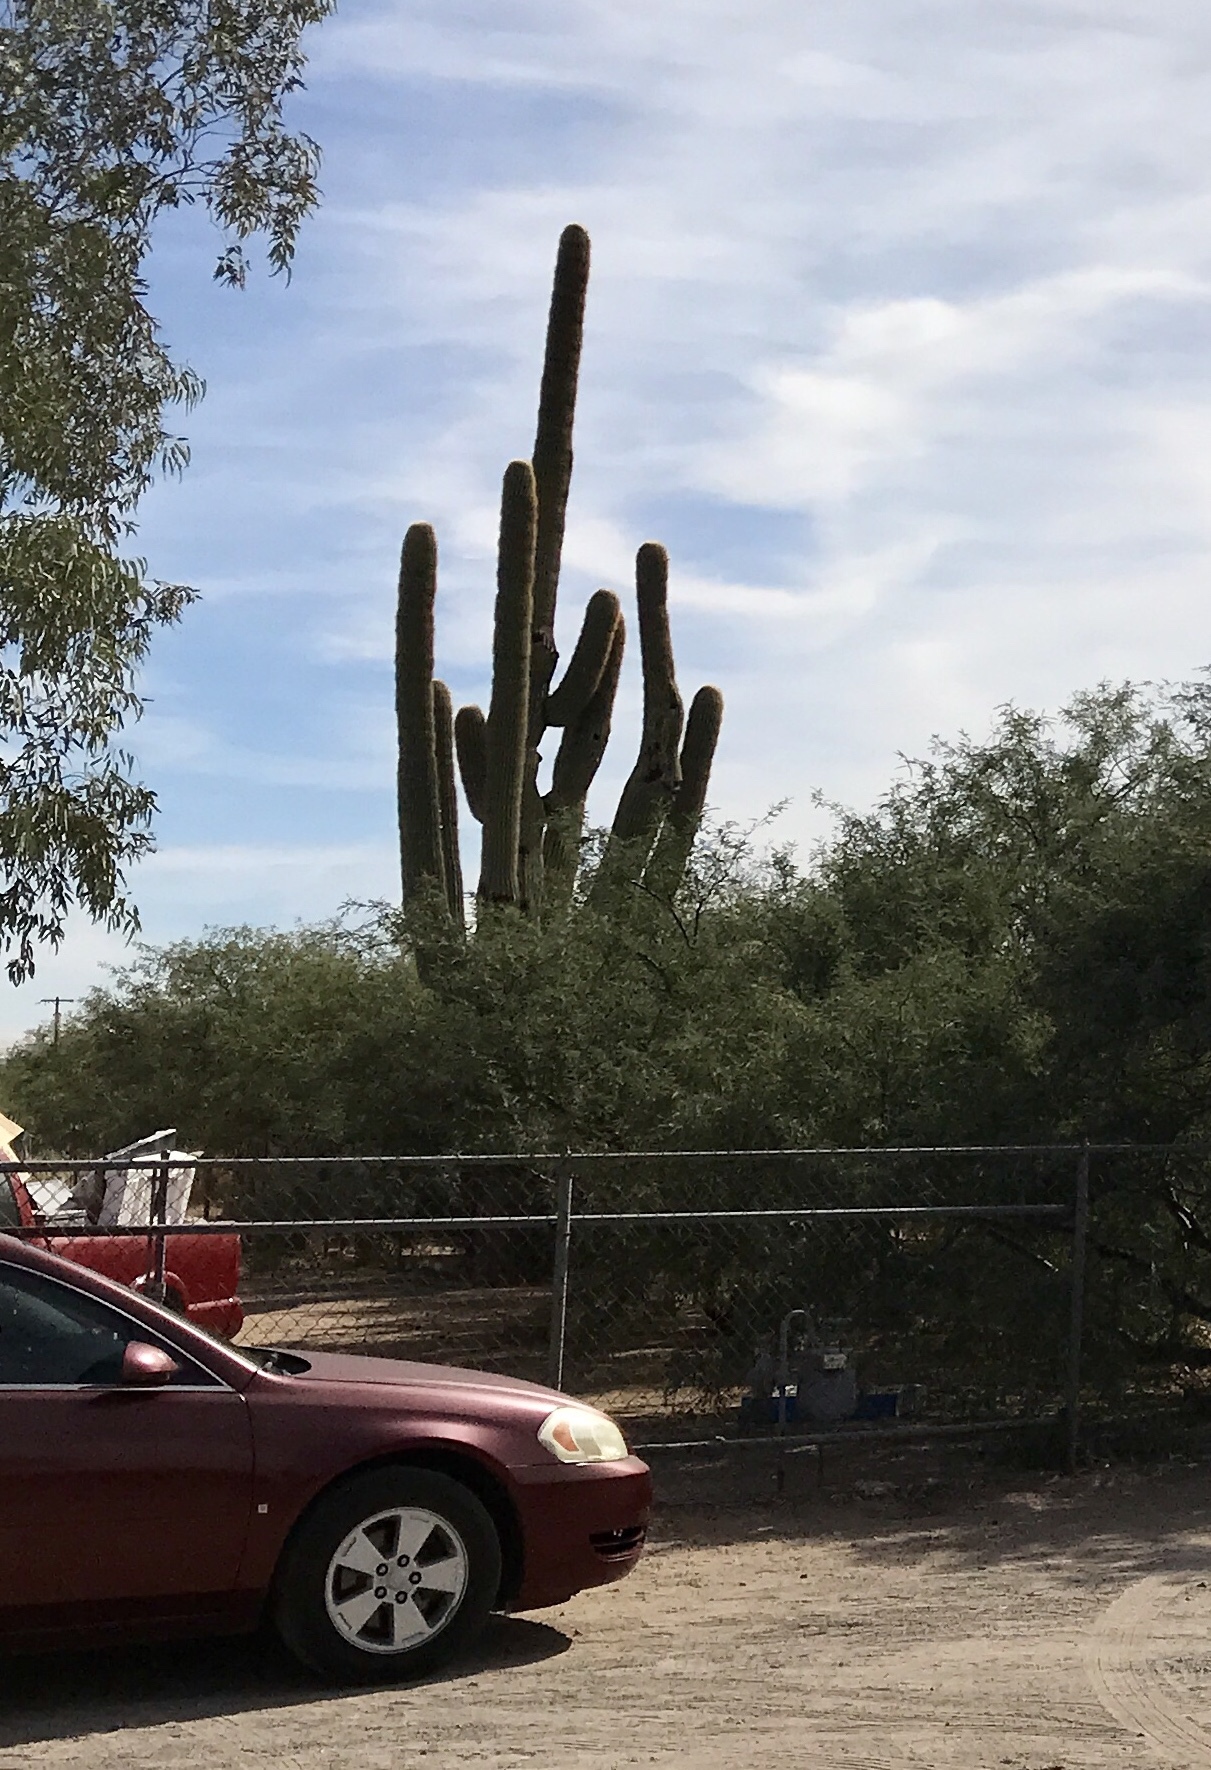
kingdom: Plantae
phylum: Tracheophyta
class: Magnoliopsida
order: Caryophyllales
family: Cactaceae
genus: Carnegiea
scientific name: Carnegiea gigantea
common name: Saguaro
